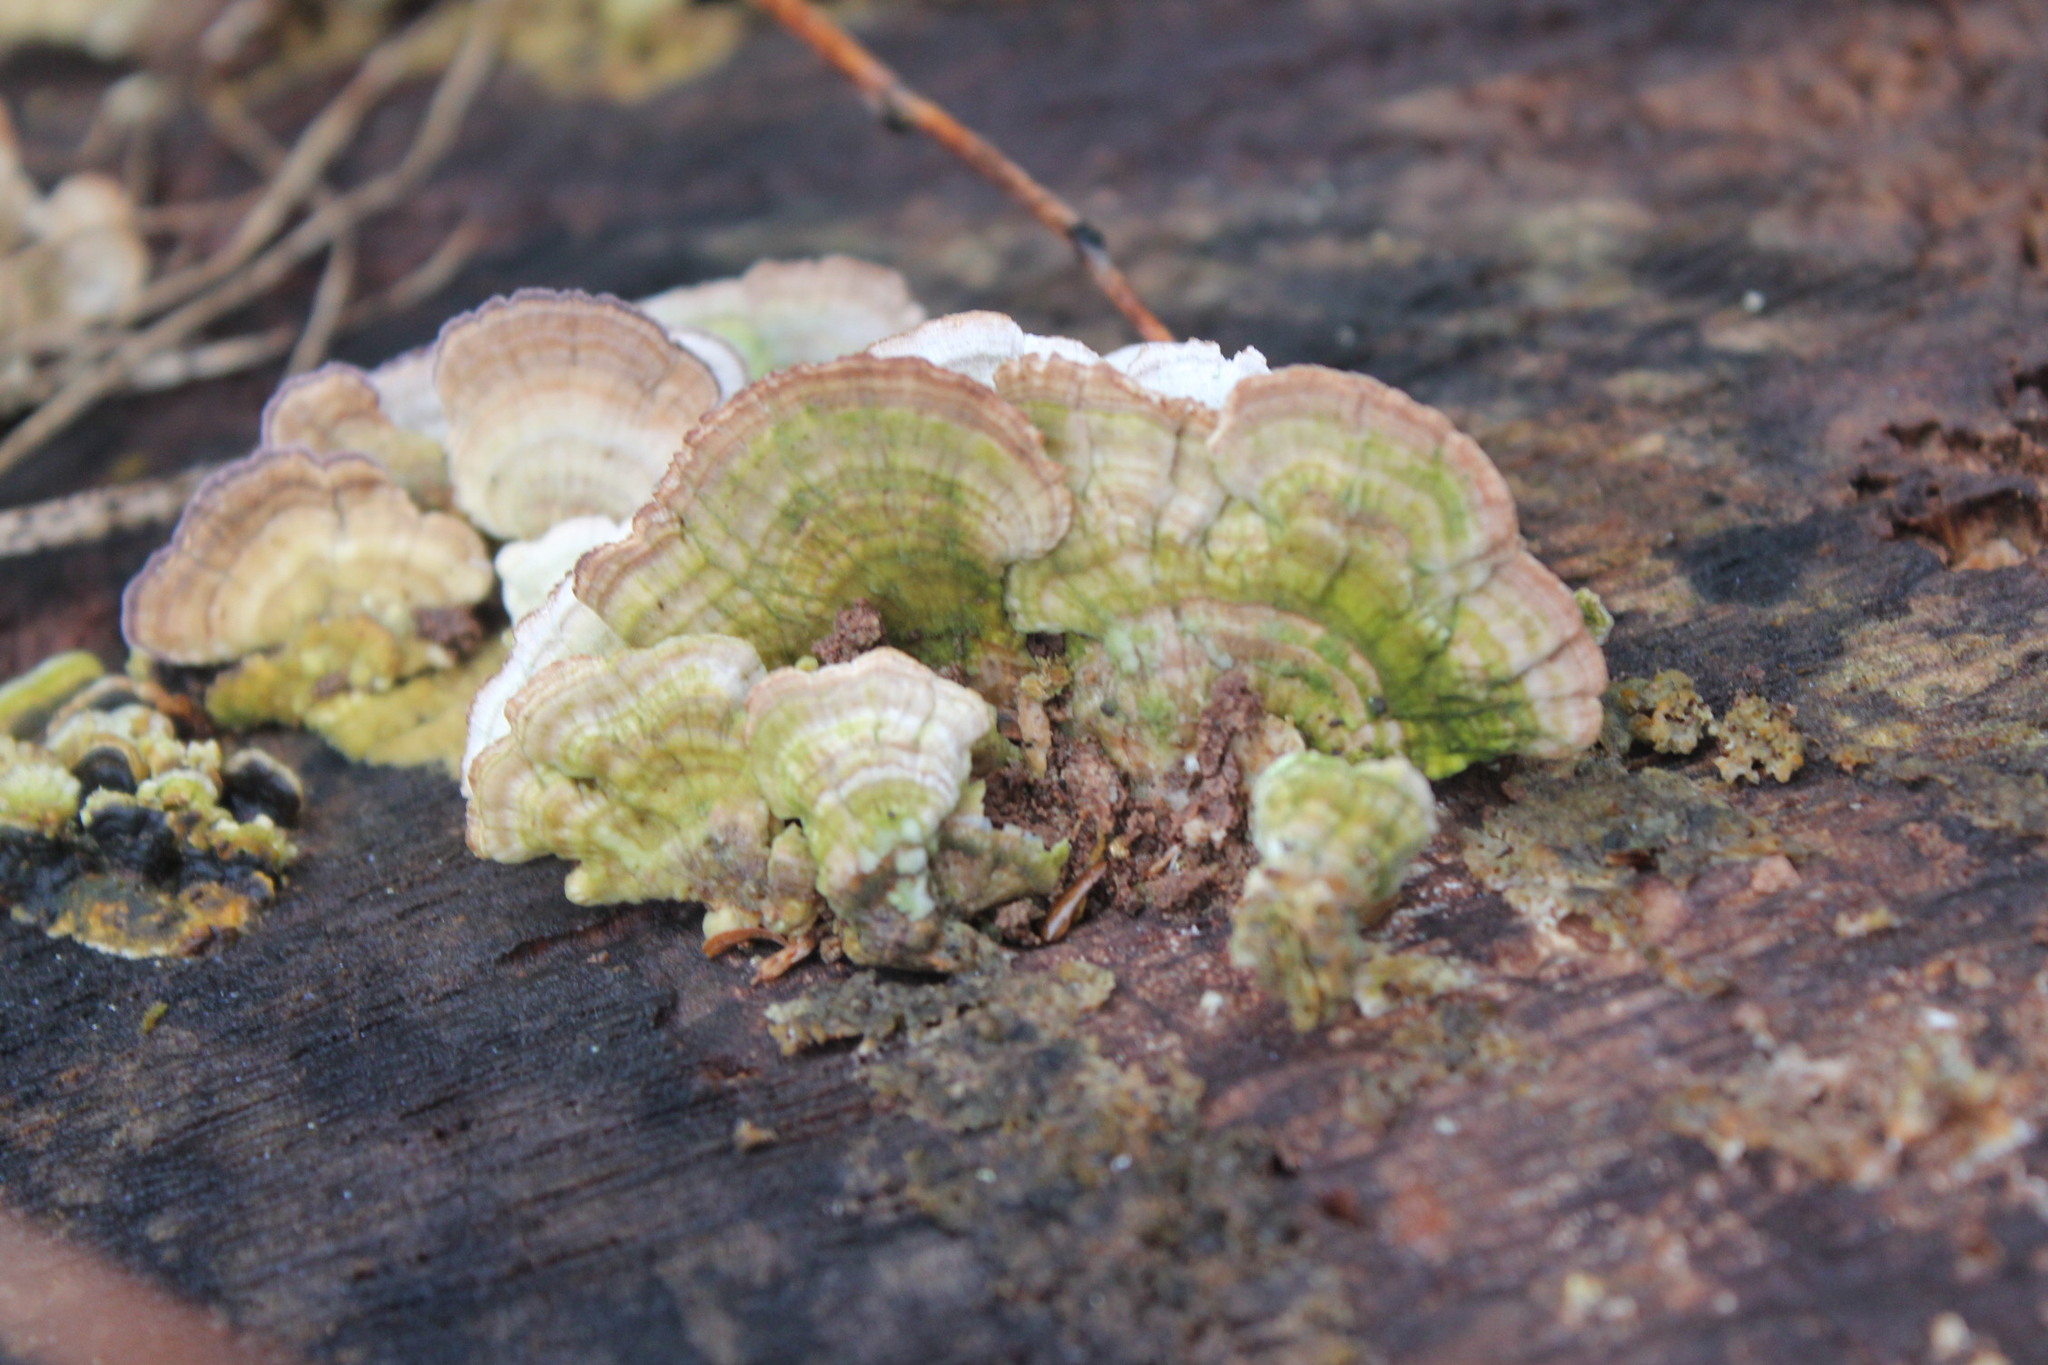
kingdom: Fungi
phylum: Basidiomycota
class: Agaricomycetes
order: Hymenochaetales
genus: Trichaptum
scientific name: Trichaptum biforme
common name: Violet-toothed polypore
